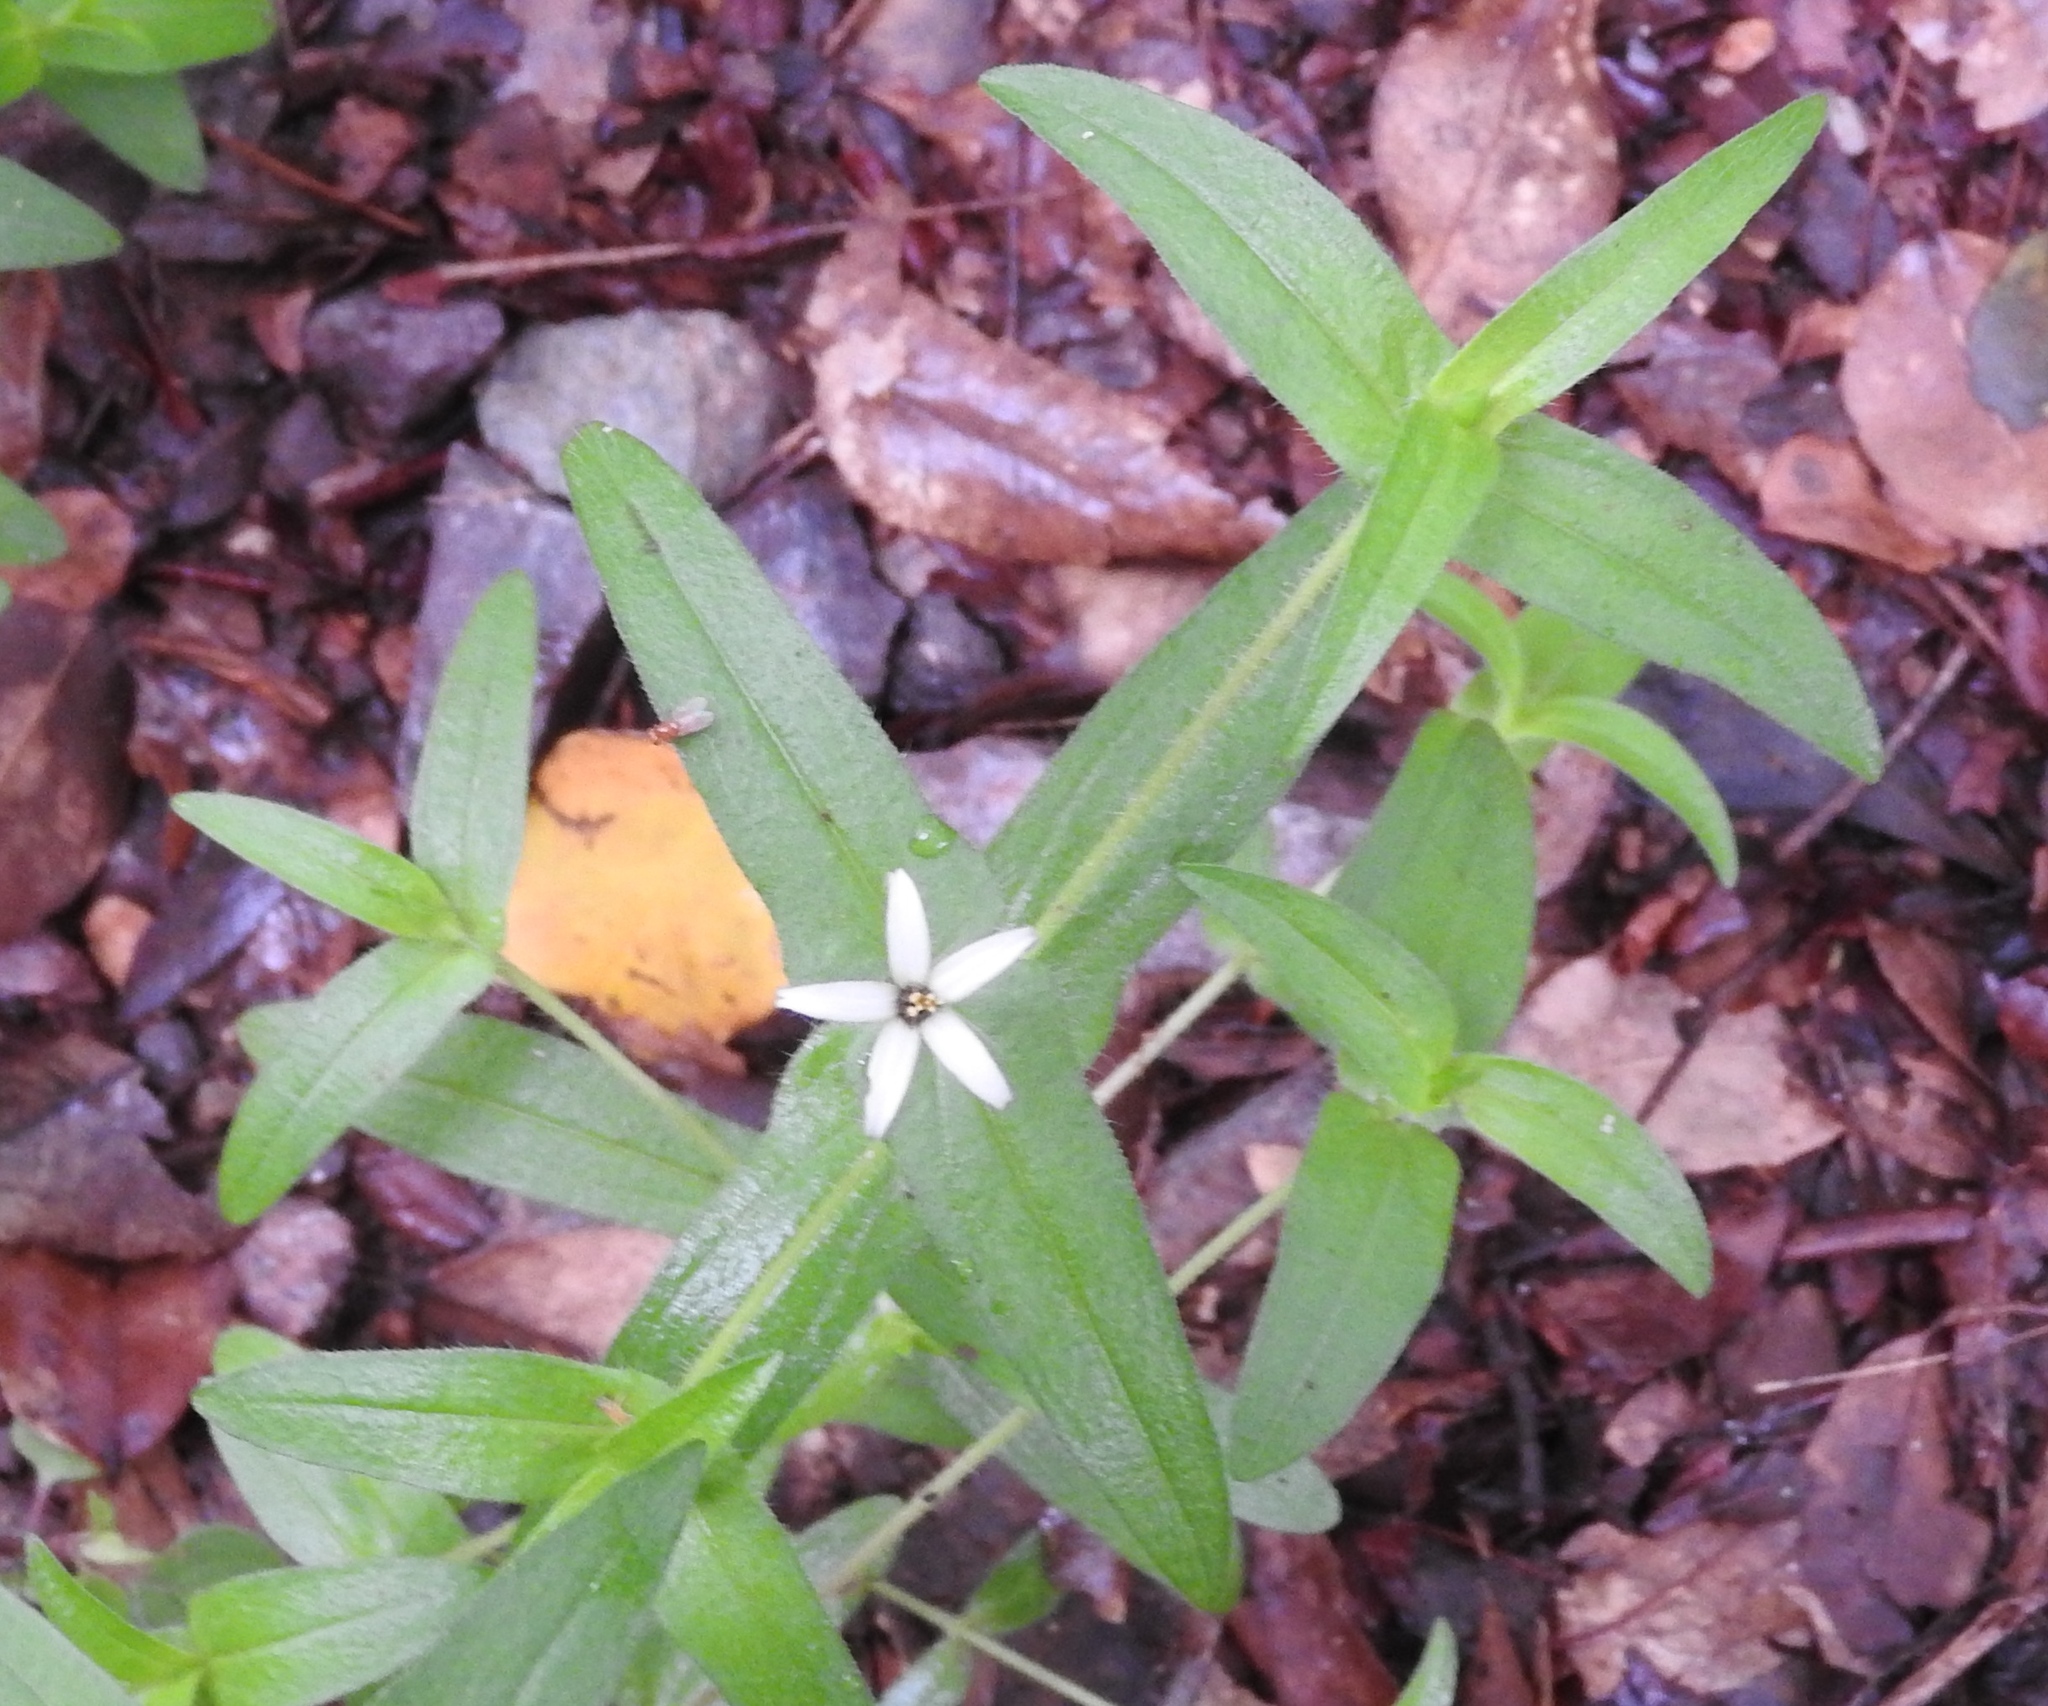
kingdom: Plantae
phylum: Tracheophyta
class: Magnoliopsida
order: Asterales
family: Asteraceae
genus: Zinnia
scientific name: Zinnia zinnioides
